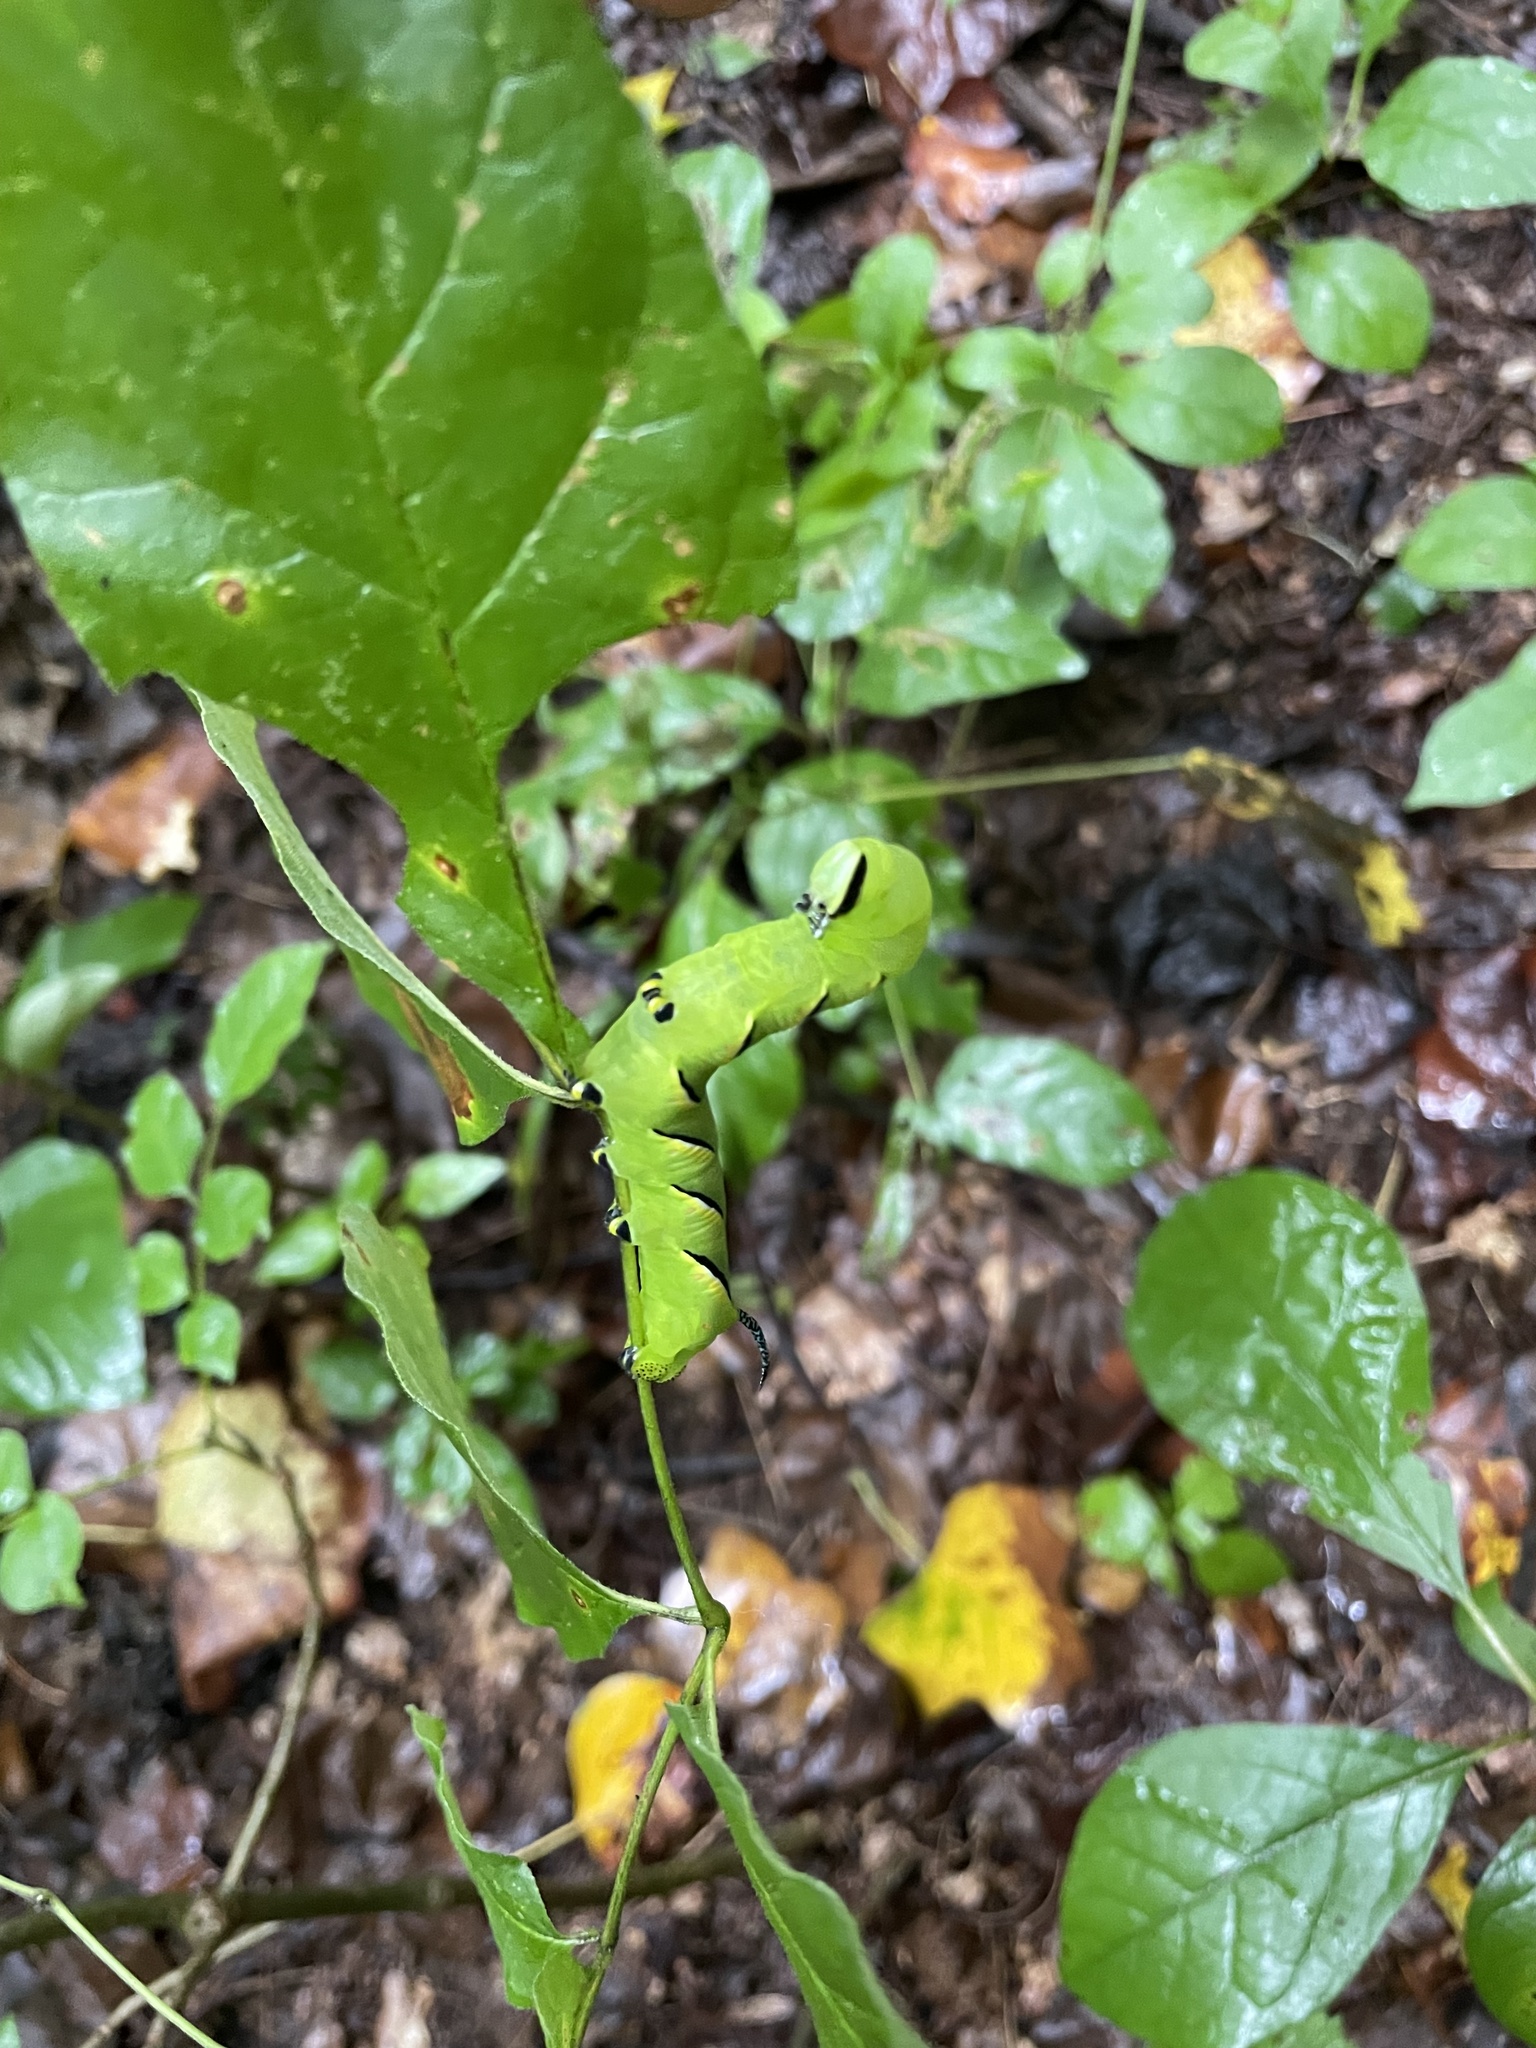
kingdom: Animalia
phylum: Arthropoda
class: Insecta
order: Lepidoptera
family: Sphingidae
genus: Sphinx
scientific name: Sphinx kalmiae
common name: Laurel sphinx
